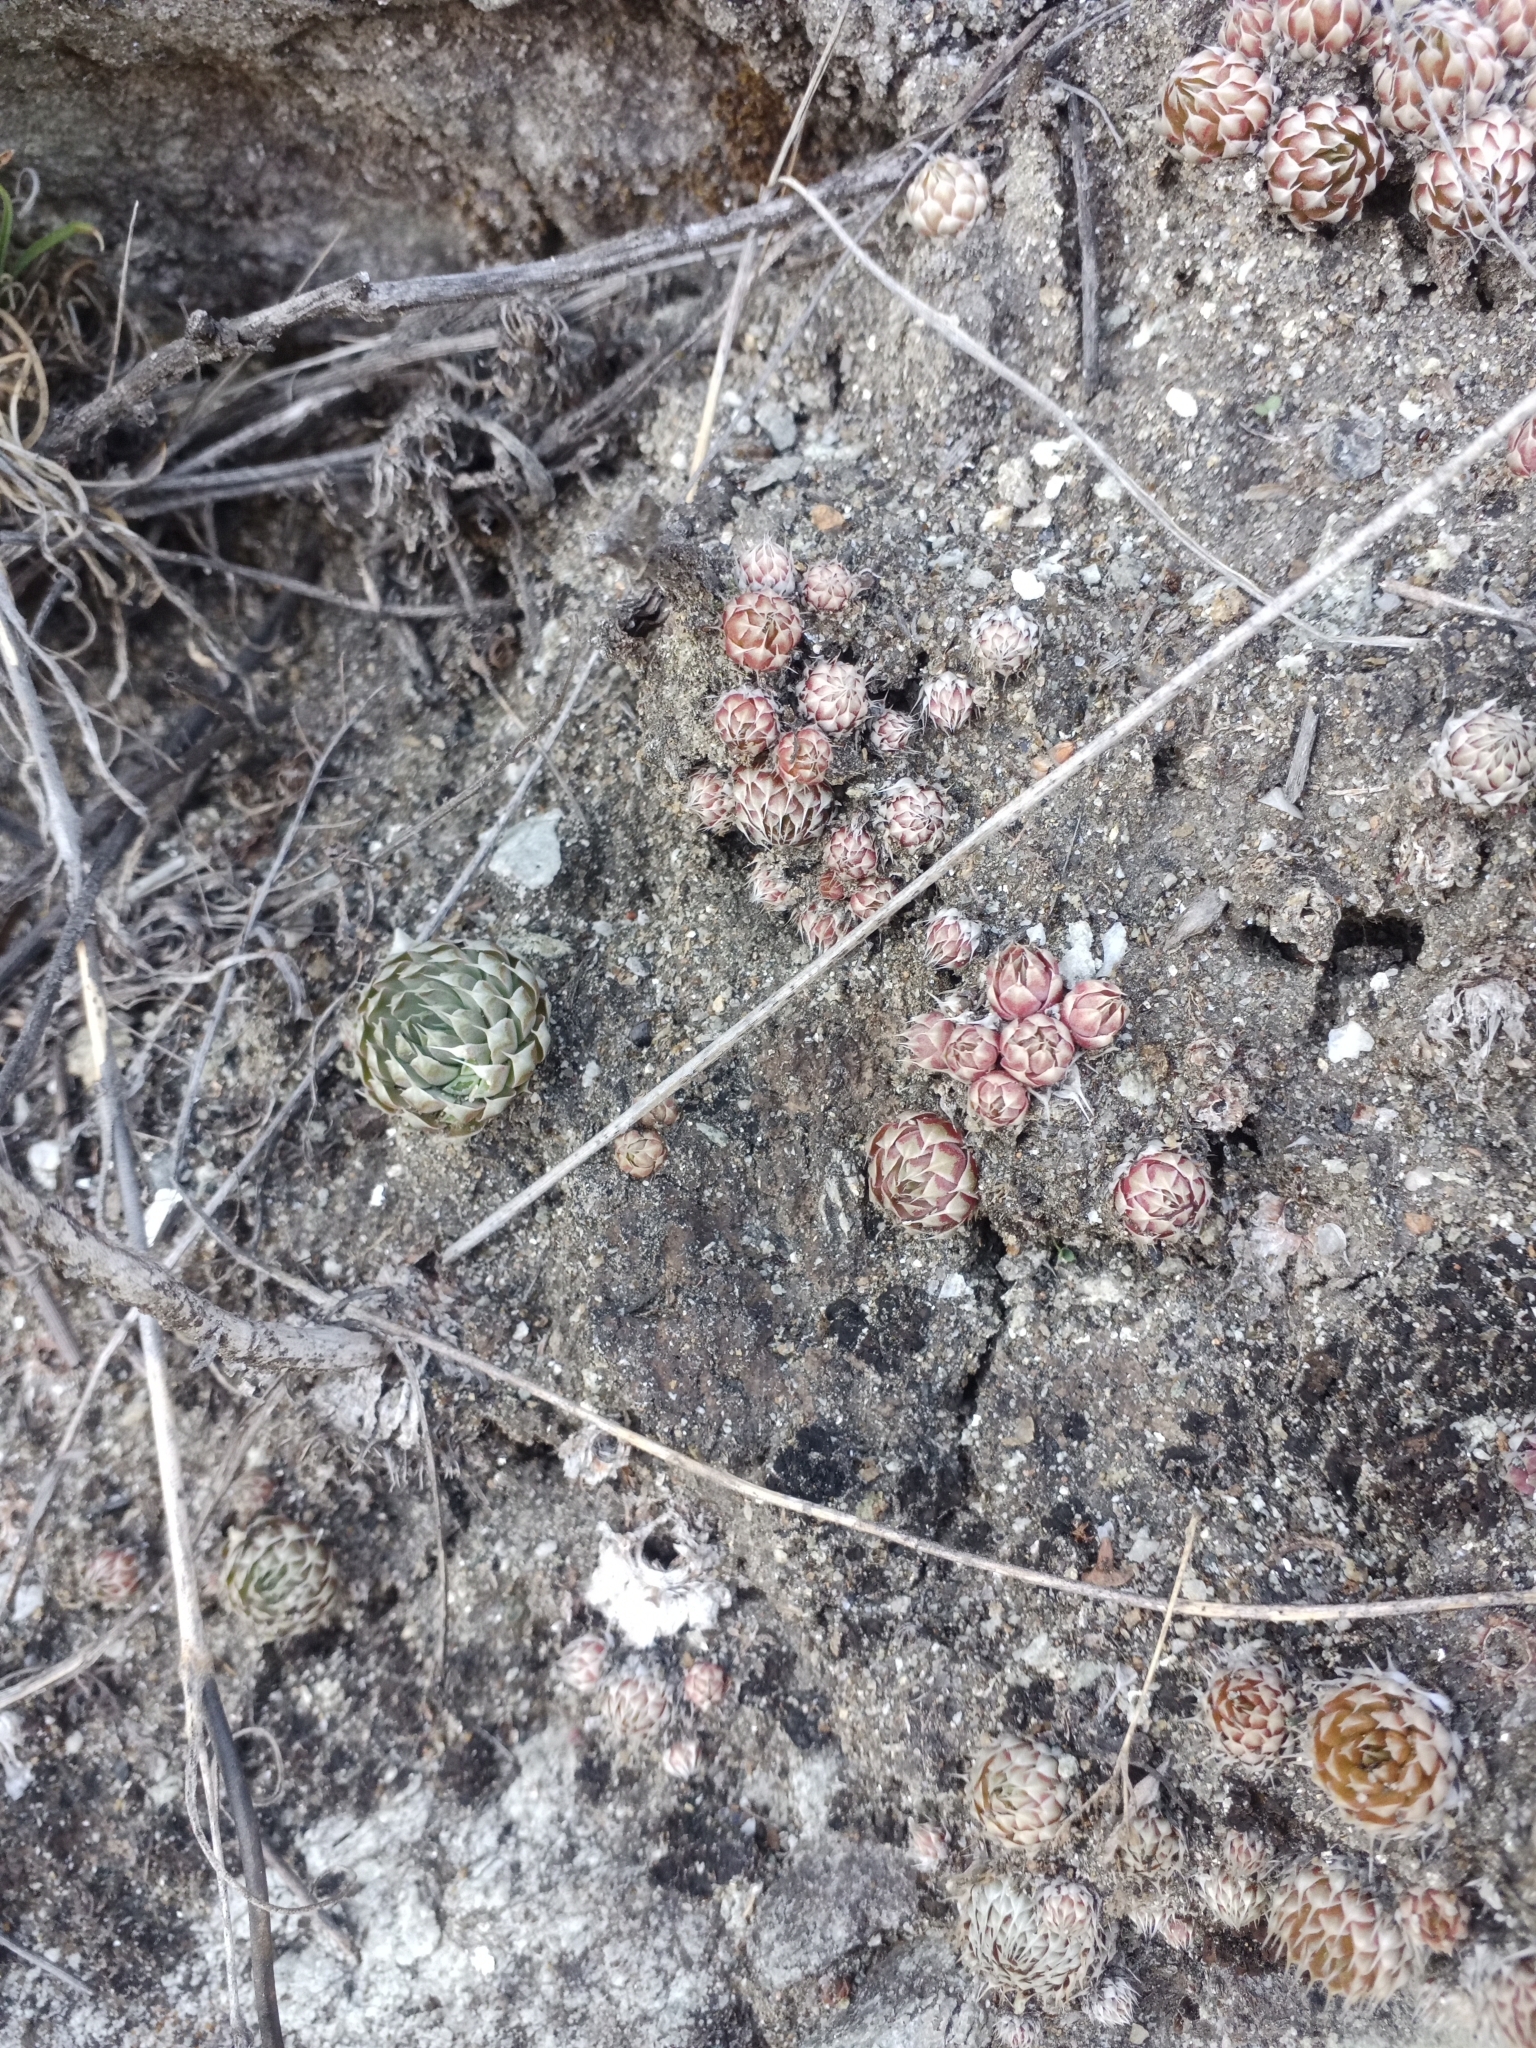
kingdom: Plantae
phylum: Tracheophyta
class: Magnoliopsida
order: Saxifragales
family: Crassulaceae
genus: Orostachys
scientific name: Orostachys spinosa
